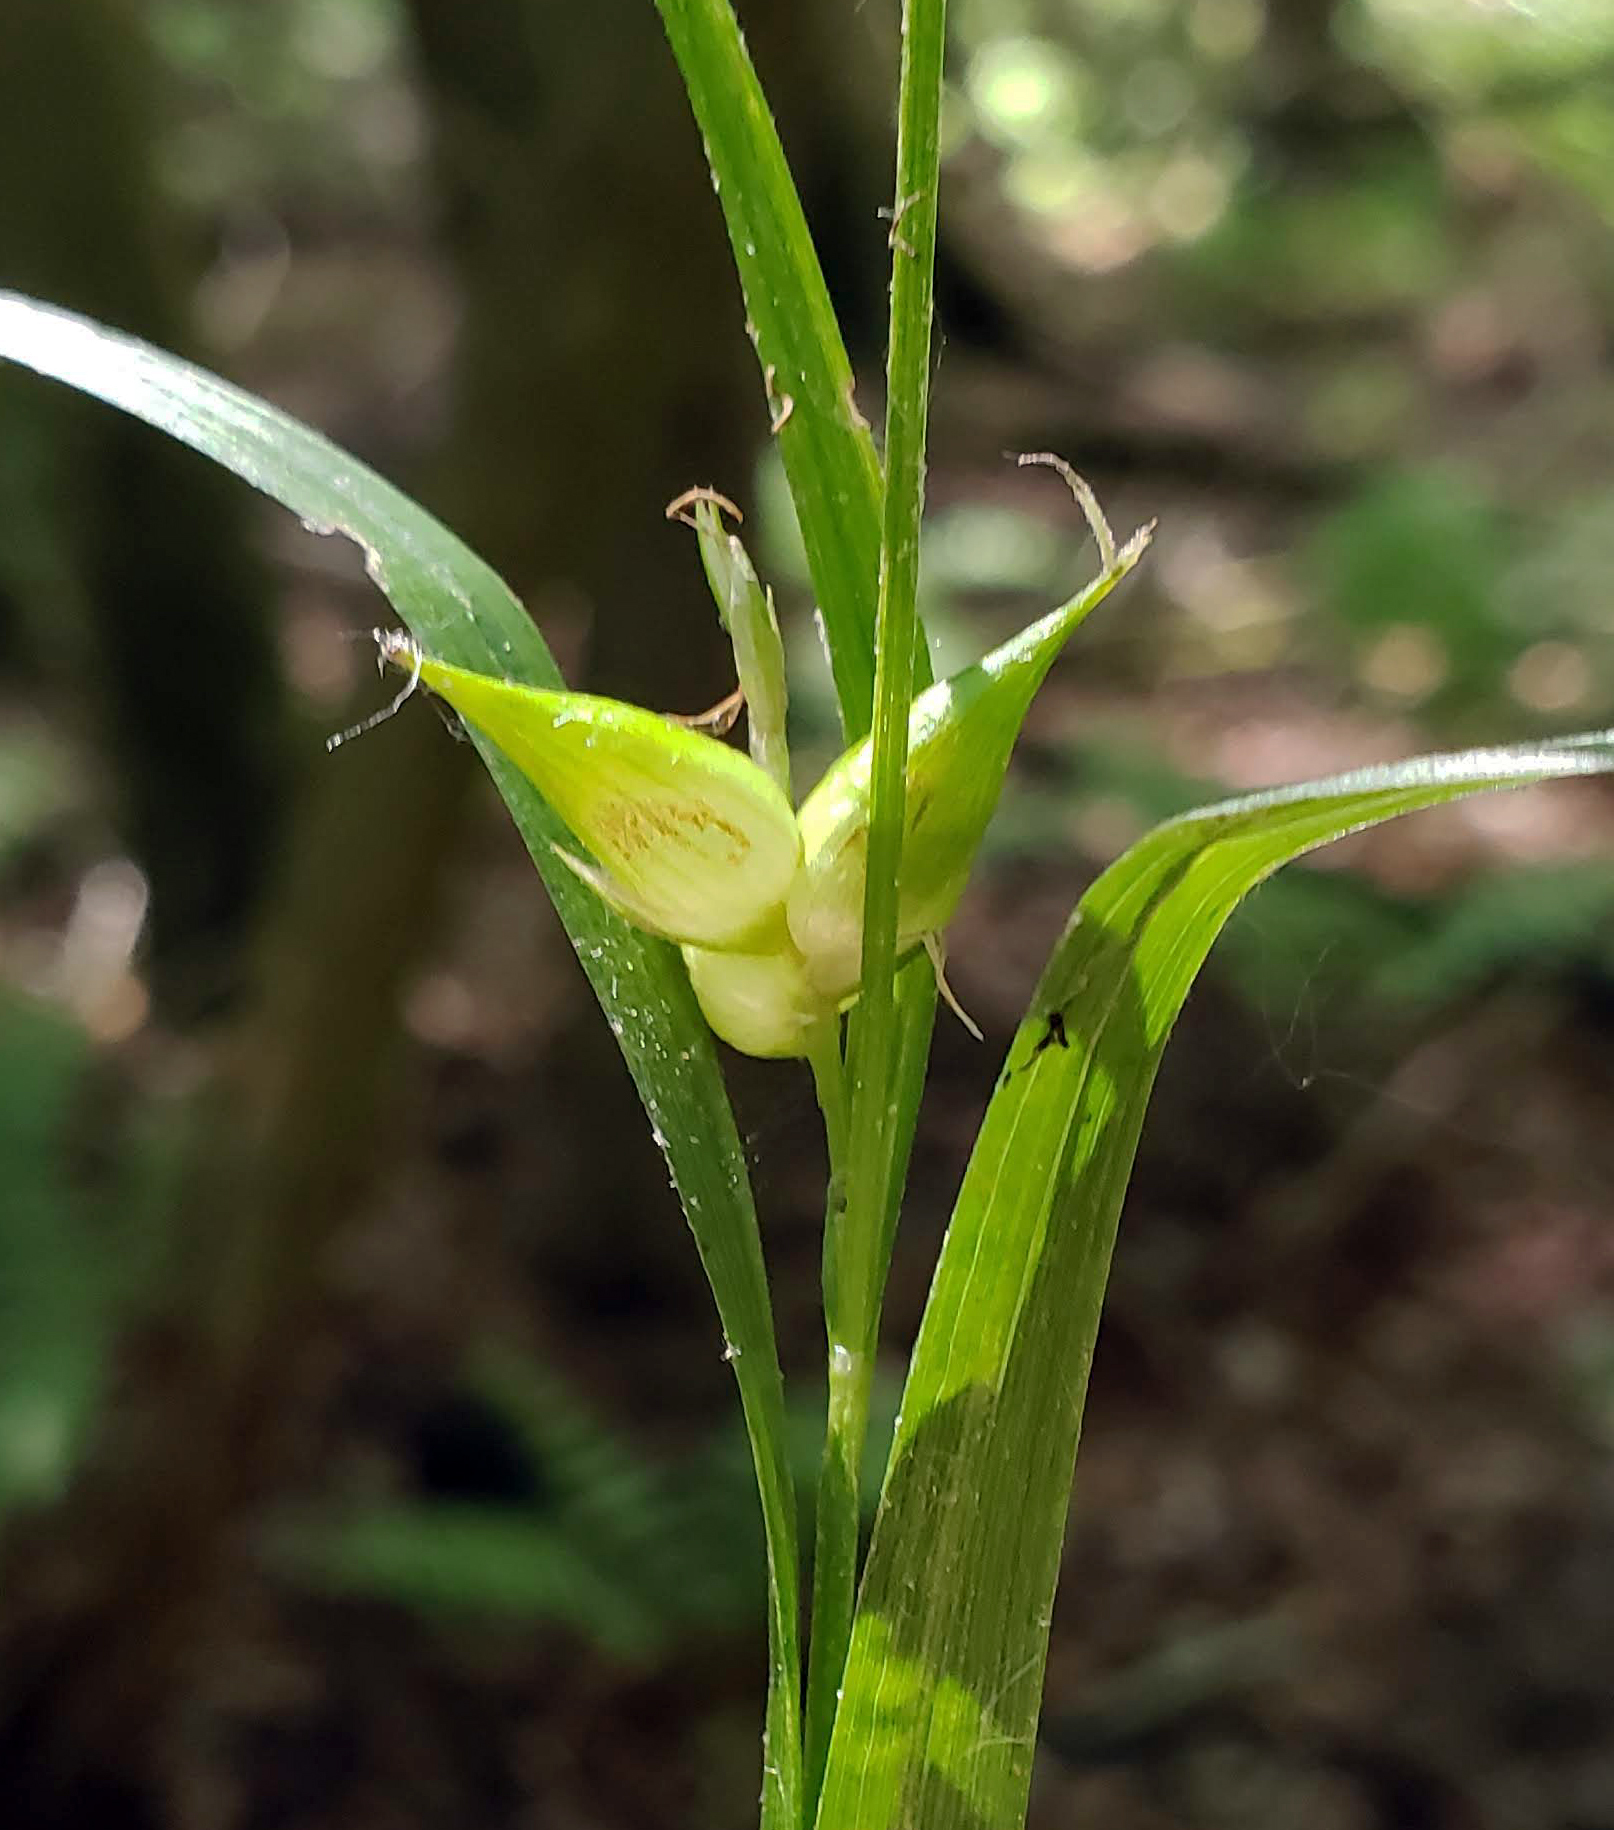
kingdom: Plantae
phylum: Tracheophyta
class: Liliopsida
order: Poales
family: Cyperaceae
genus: Carex
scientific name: Carex intumescens
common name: Greater bladder sedge
